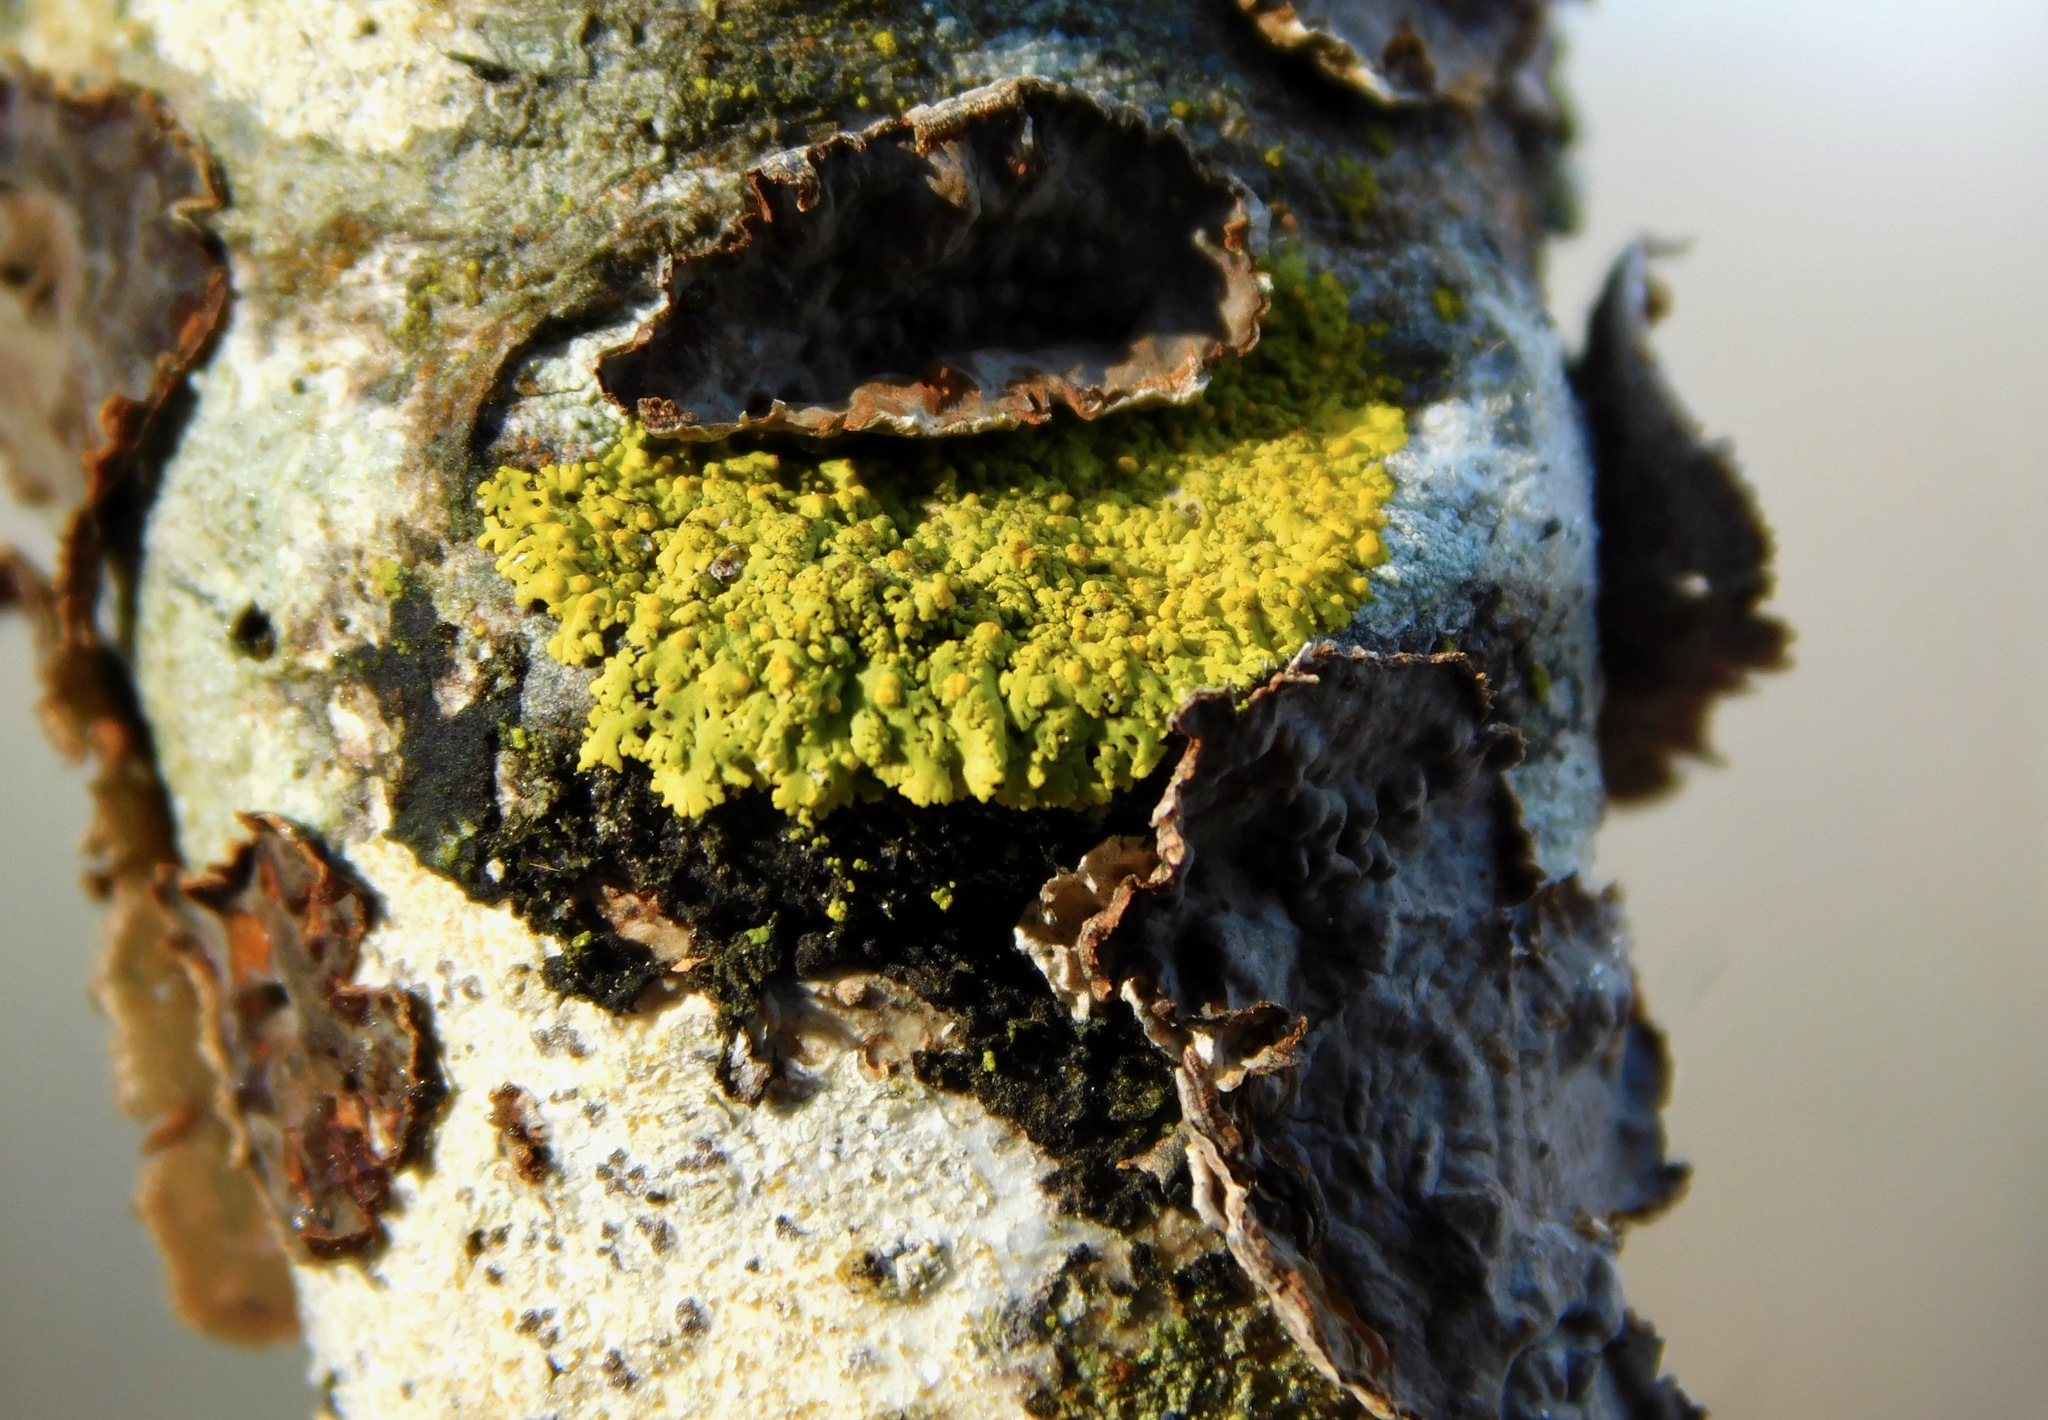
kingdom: Fungi
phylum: Ascomycota
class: Candelariomycetes
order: Candelariales
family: Candelariaceae
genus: Candelaria
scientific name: Candelaria fibrosa
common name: Fringed candleflame lichen
